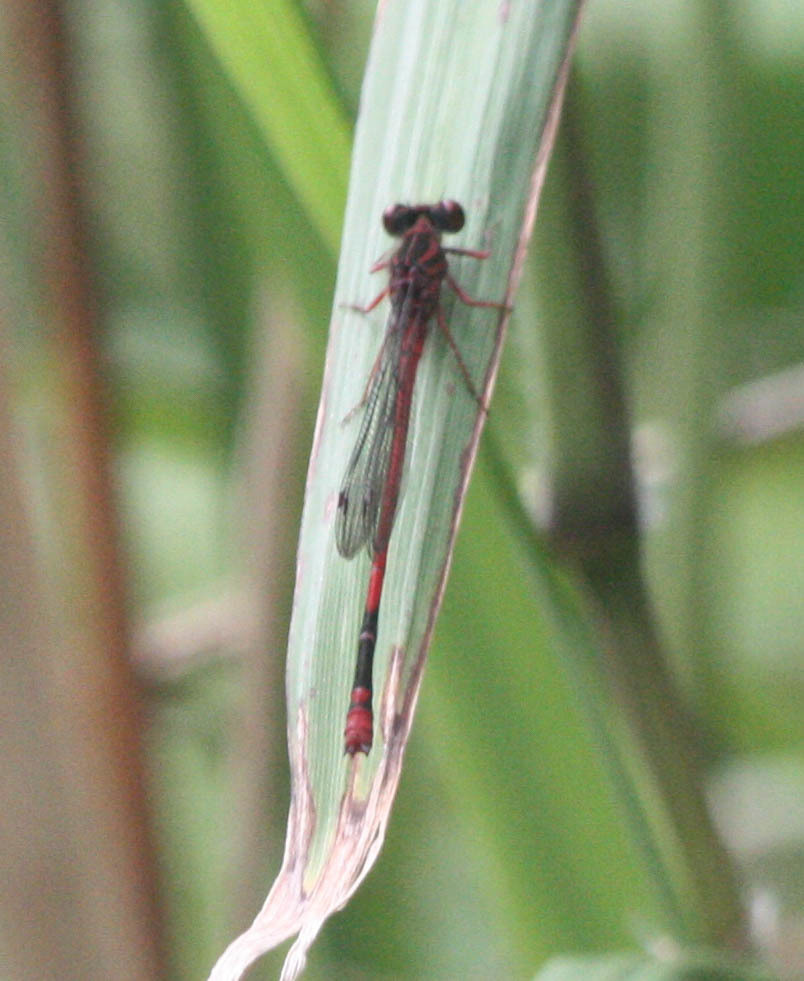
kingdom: Animalia
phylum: Arthropoda
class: Insecta
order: Odonata
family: Coenagrionidae
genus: Megalagrion
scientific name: Megalagrion heterogamias
